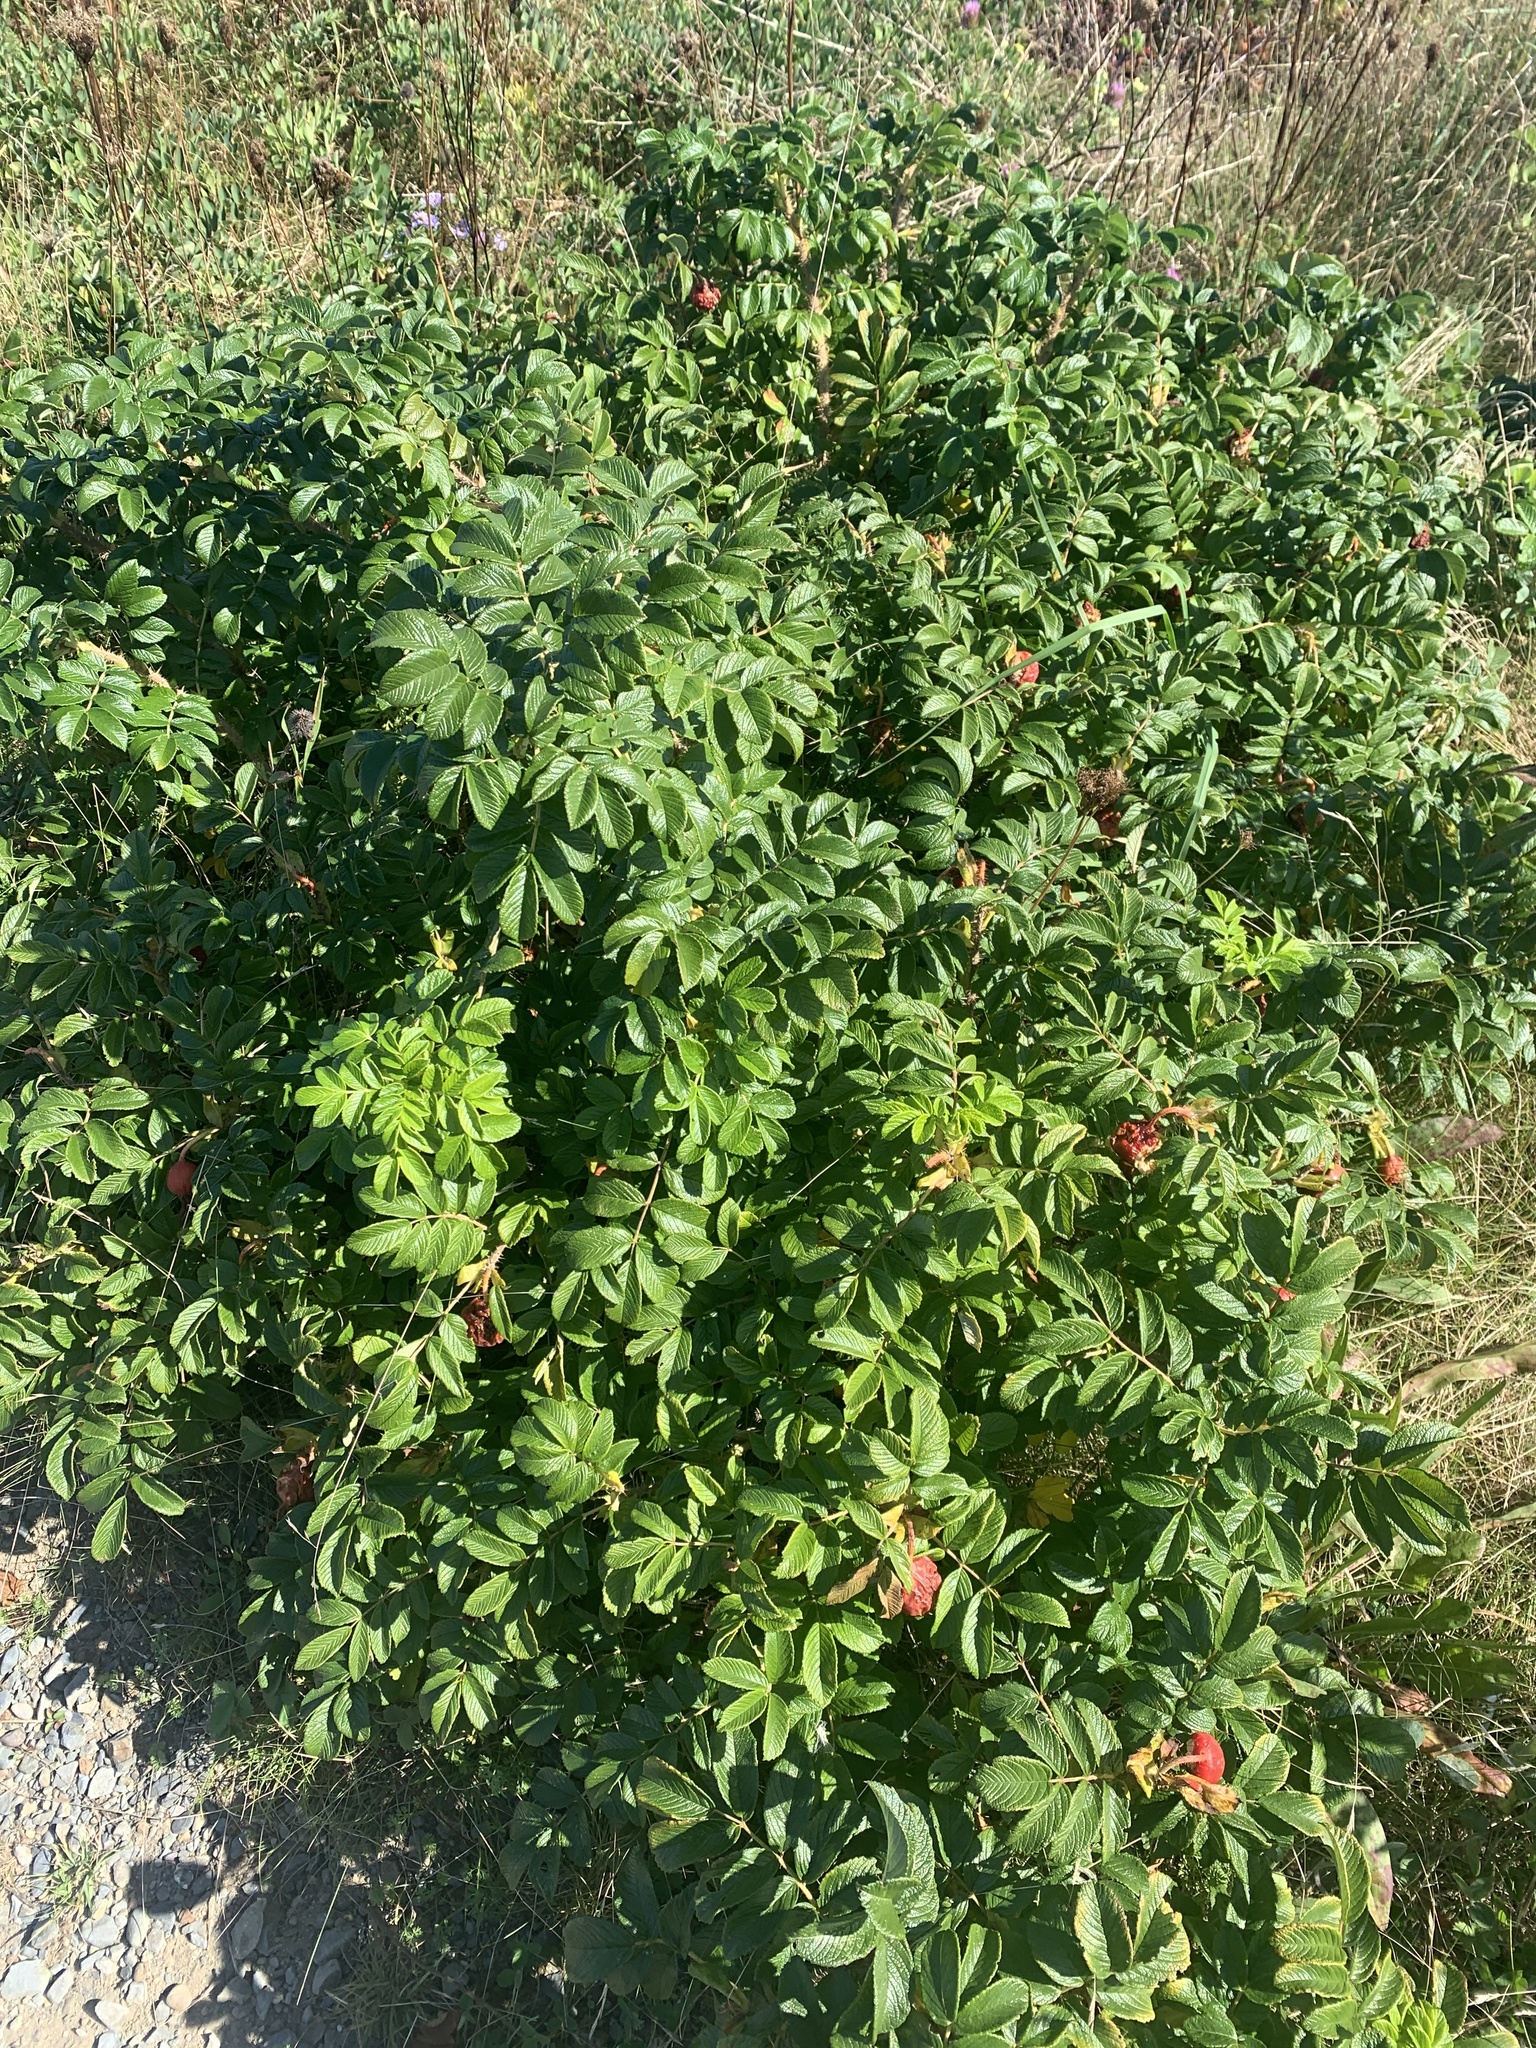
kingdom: Plantae
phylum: Tracheophyta
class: Magnoliopsida
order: Rosales
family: Rosaceae
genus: Rosa
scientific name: Rosa rugosa
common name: Japanese rose
